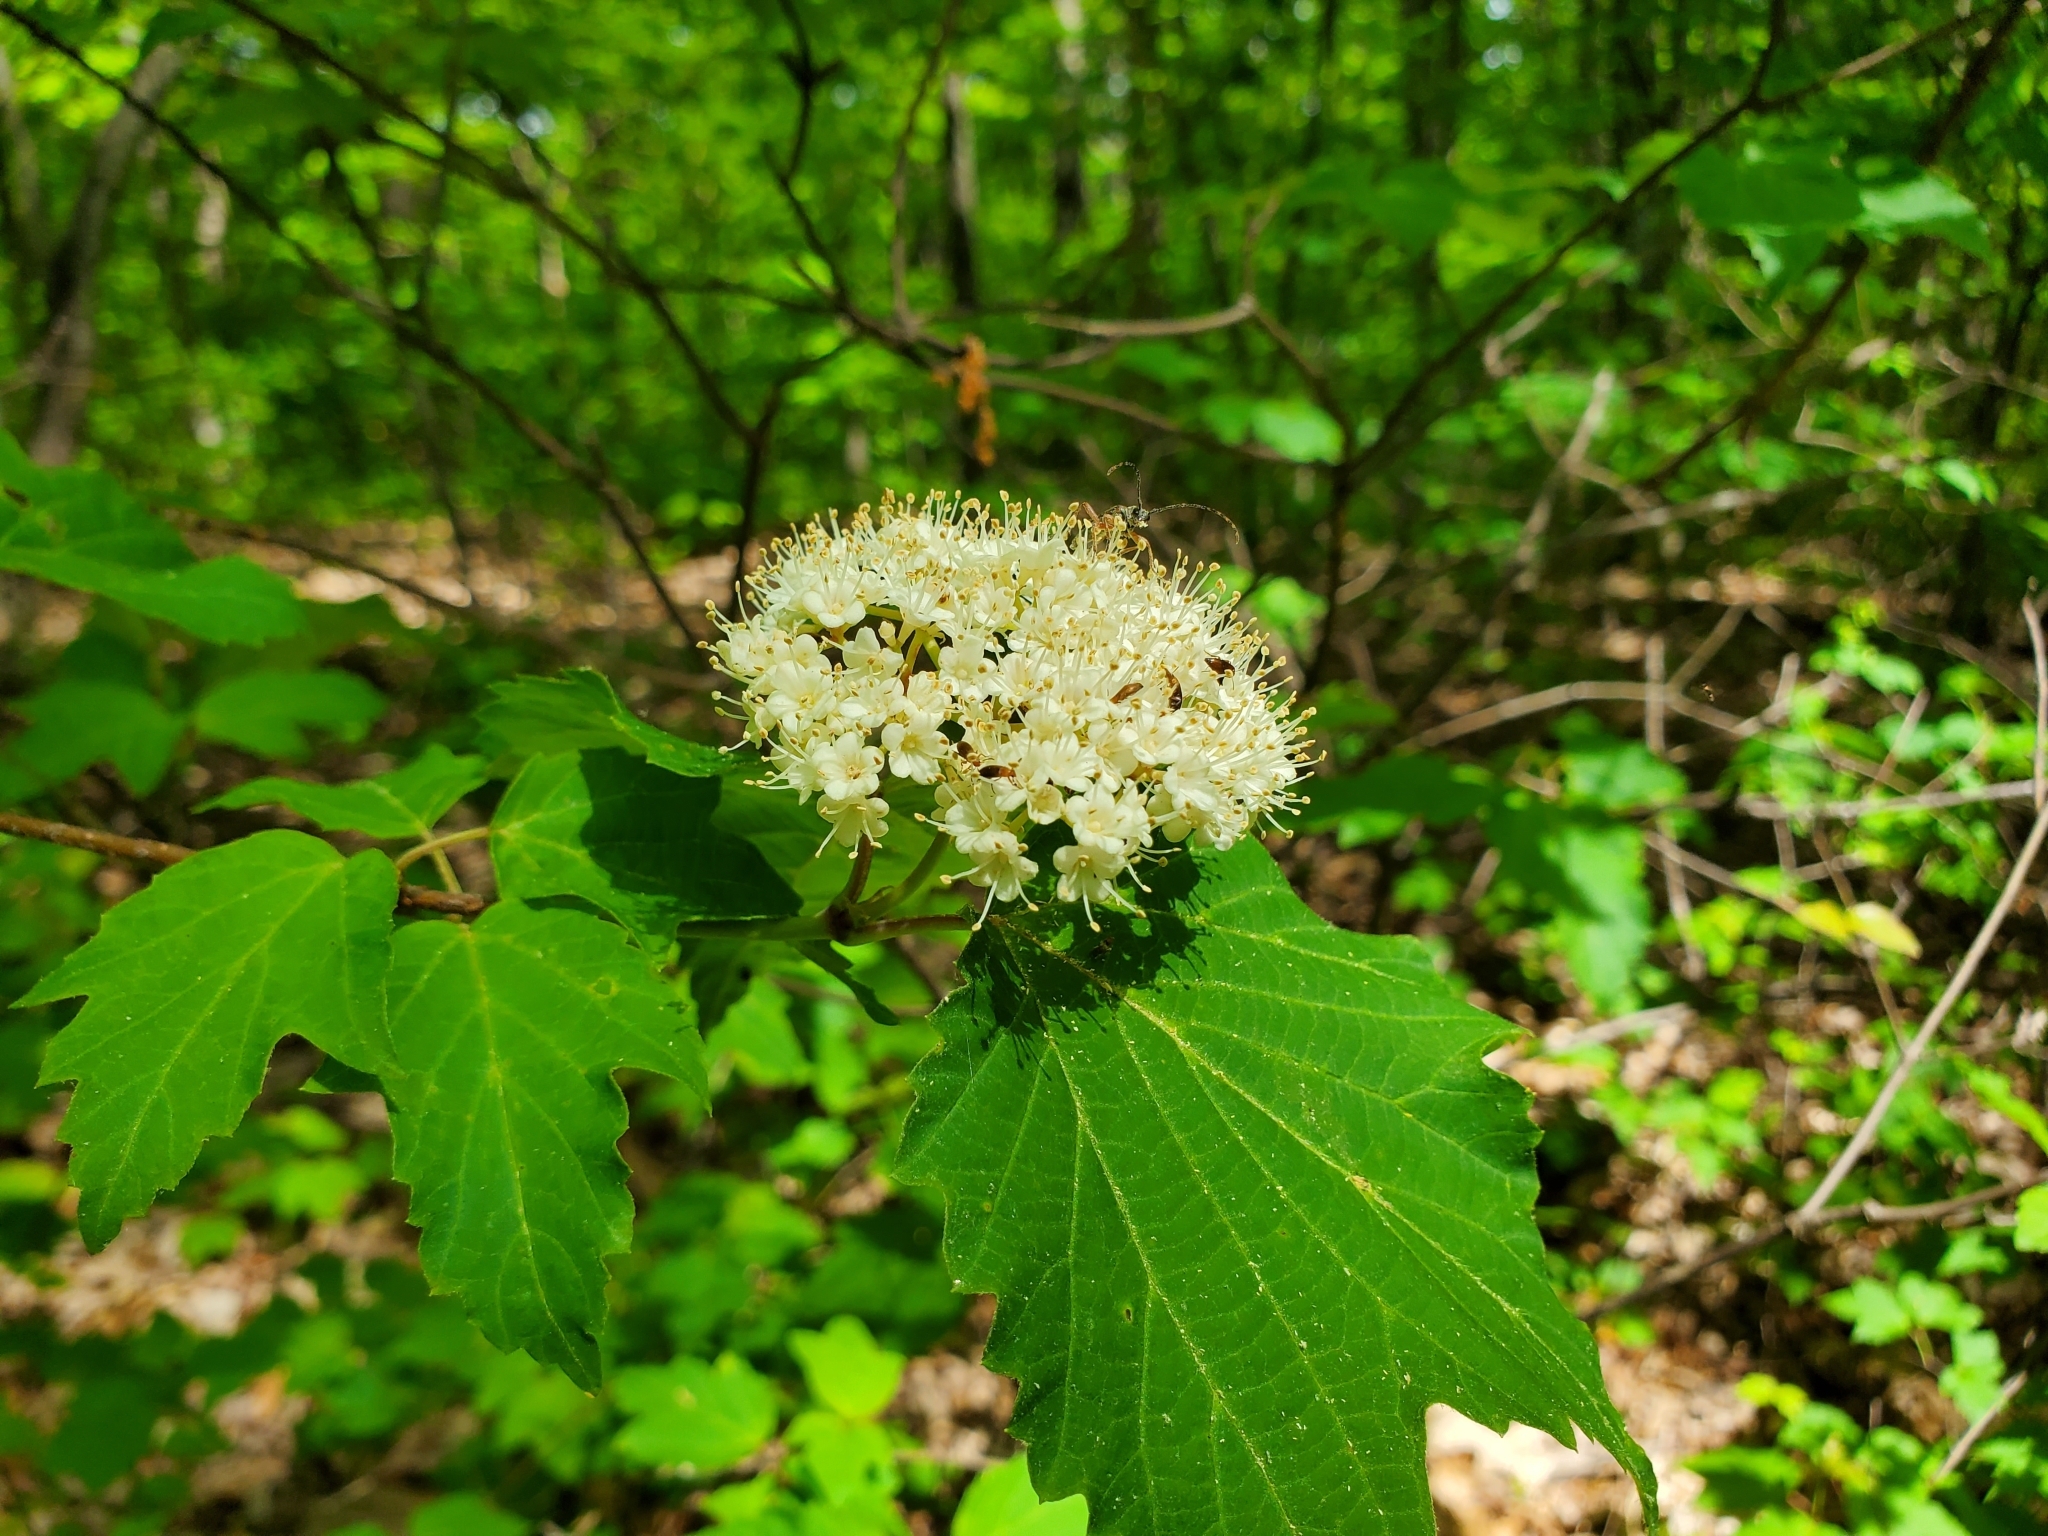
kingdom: Plantae
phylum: Tracheophyta
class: Magnoliopsida
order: Dipsacales
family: Viburnaceae
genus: Viburnum
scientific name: Viburnum acerifolium
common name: Dockmackie
